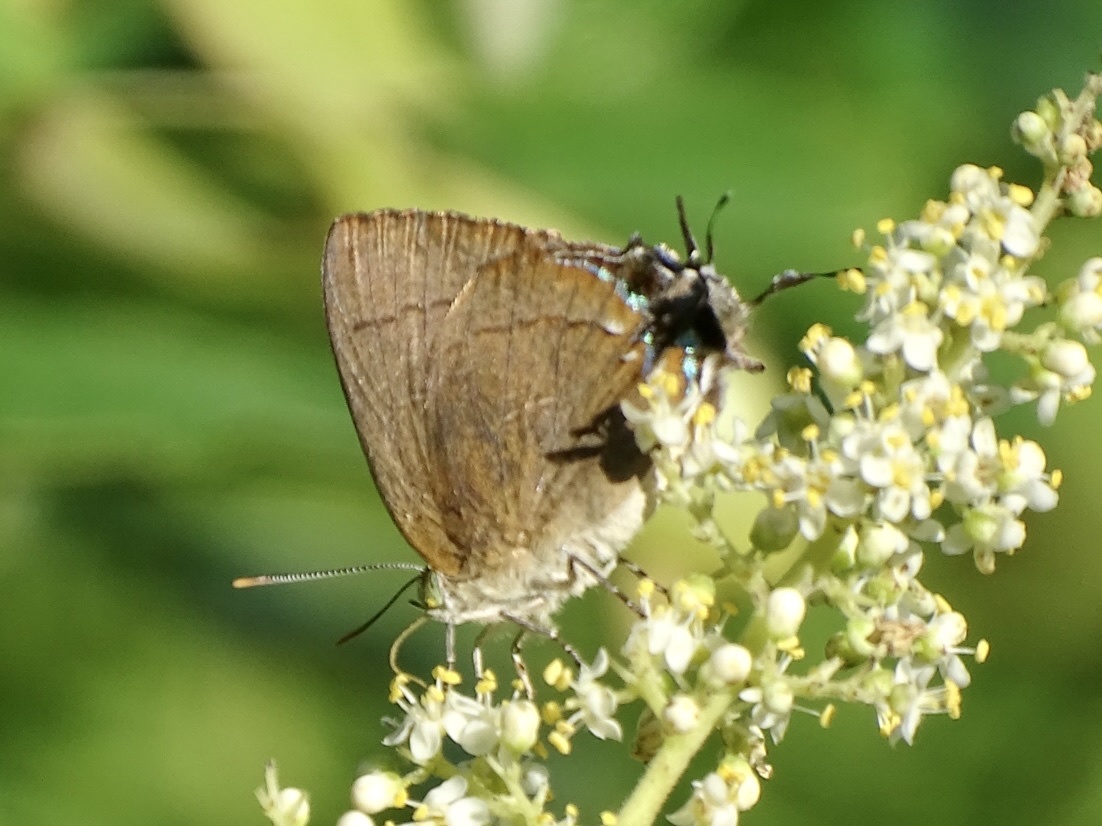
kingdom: Animalia
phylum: Arthropoda
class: Insecta
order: Lepidoptera
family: Lycaenidae
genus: Remelana
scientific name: Remelana jangala
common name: Chocolate royal
